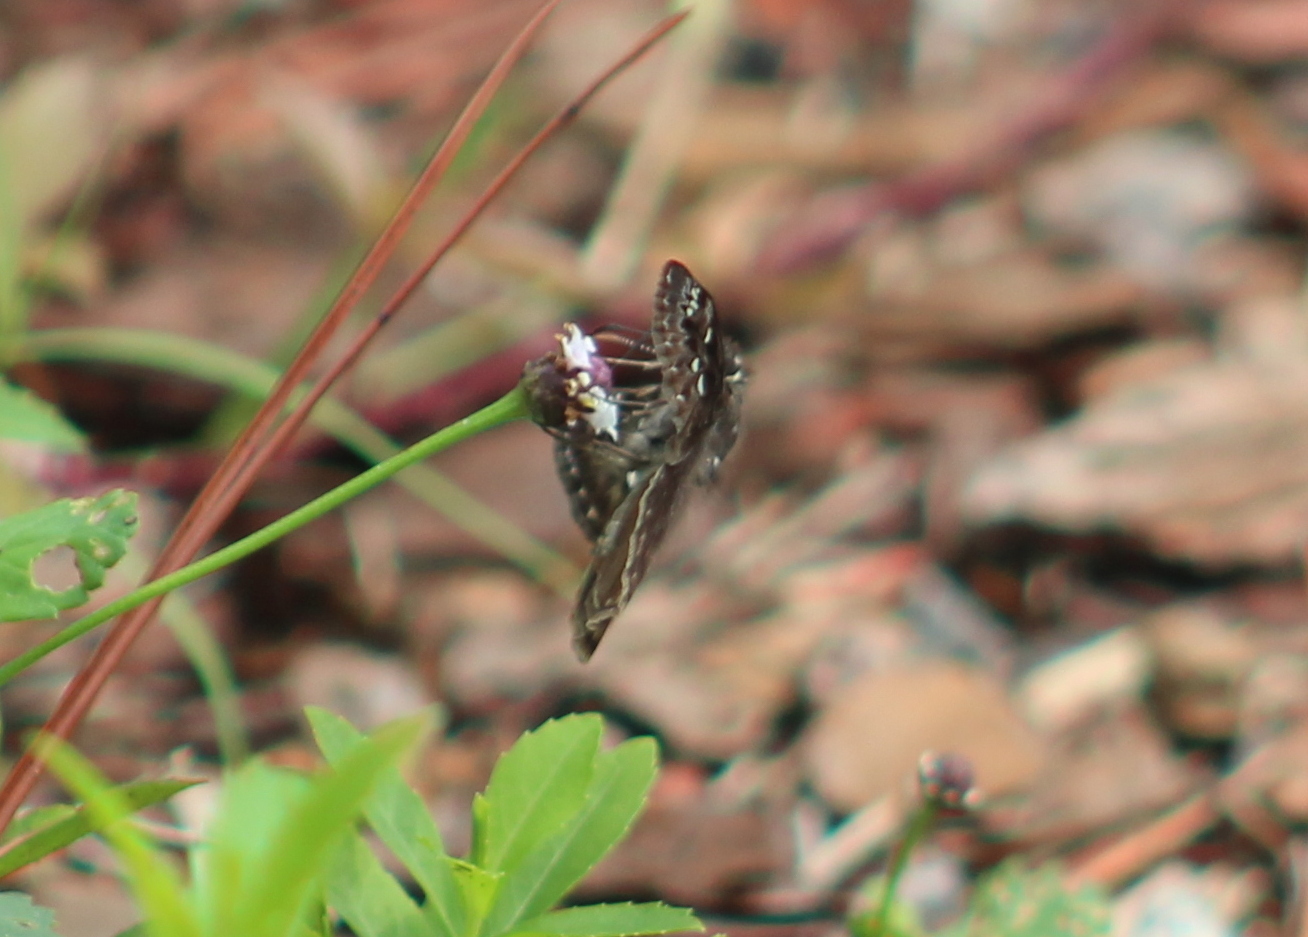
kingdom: Animalia
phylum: Arthropoda
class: Insecta
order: Lepidoptera
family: Hesperiidae
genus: Erynnis
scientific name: Erynnis horatius
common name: Horace's duskywing
